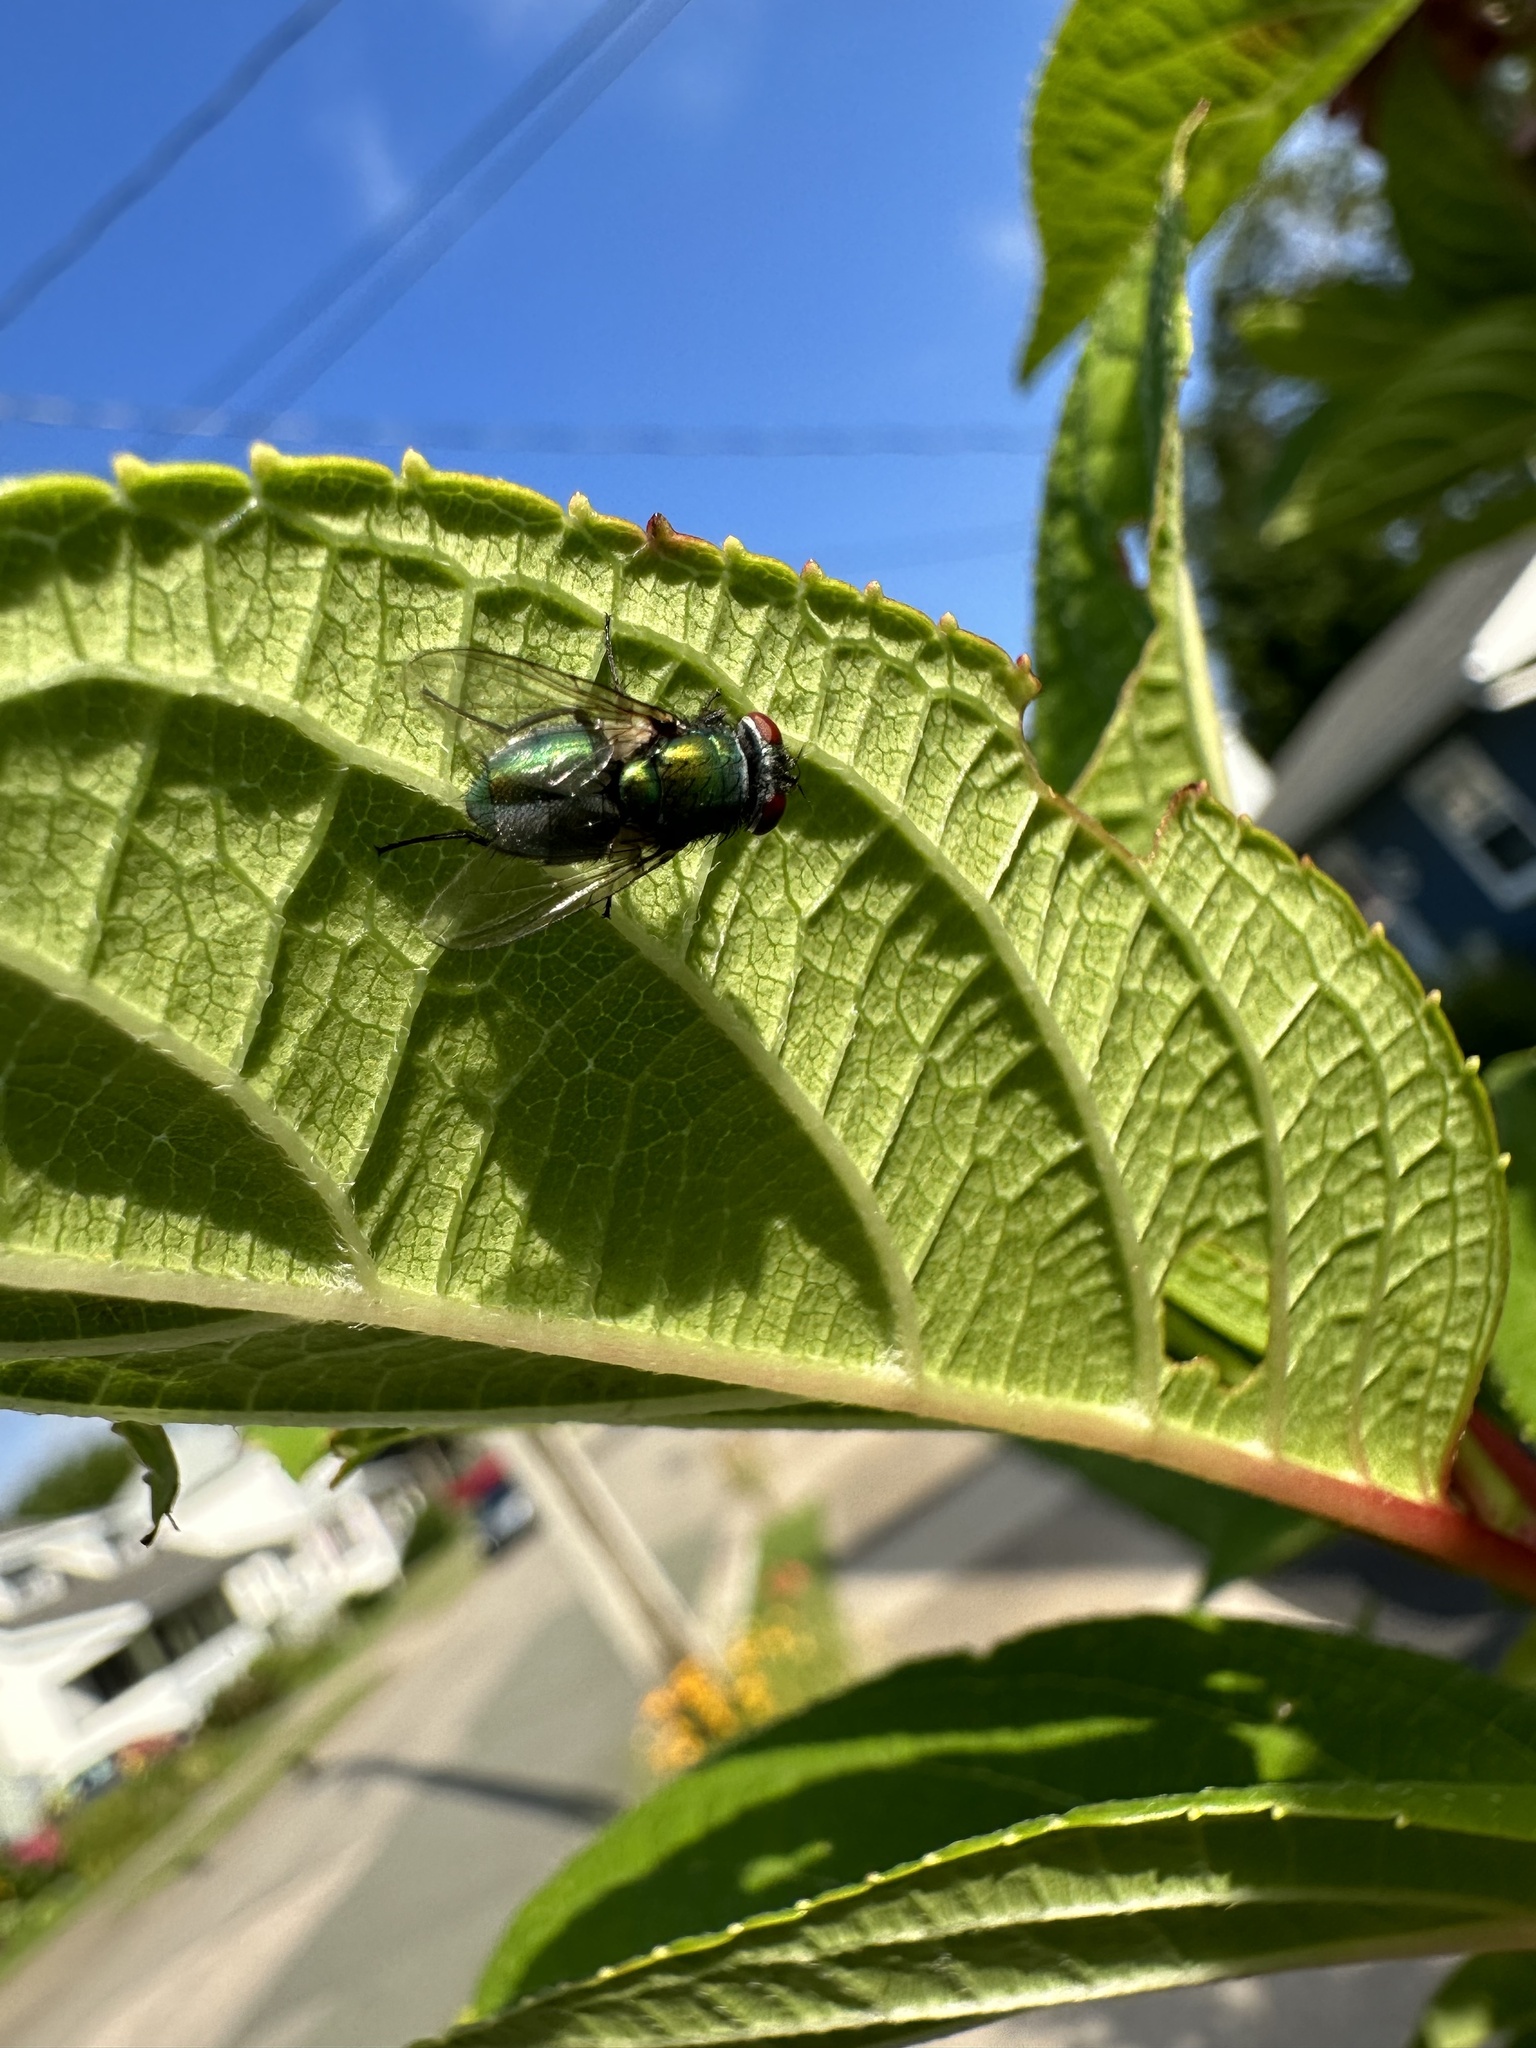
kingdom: Animalia
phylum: Arthropoda
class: Insecta
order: Diptera
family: Calliphoridae
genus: Lucilia
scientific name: Lucilia sericata
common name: Blow fly
